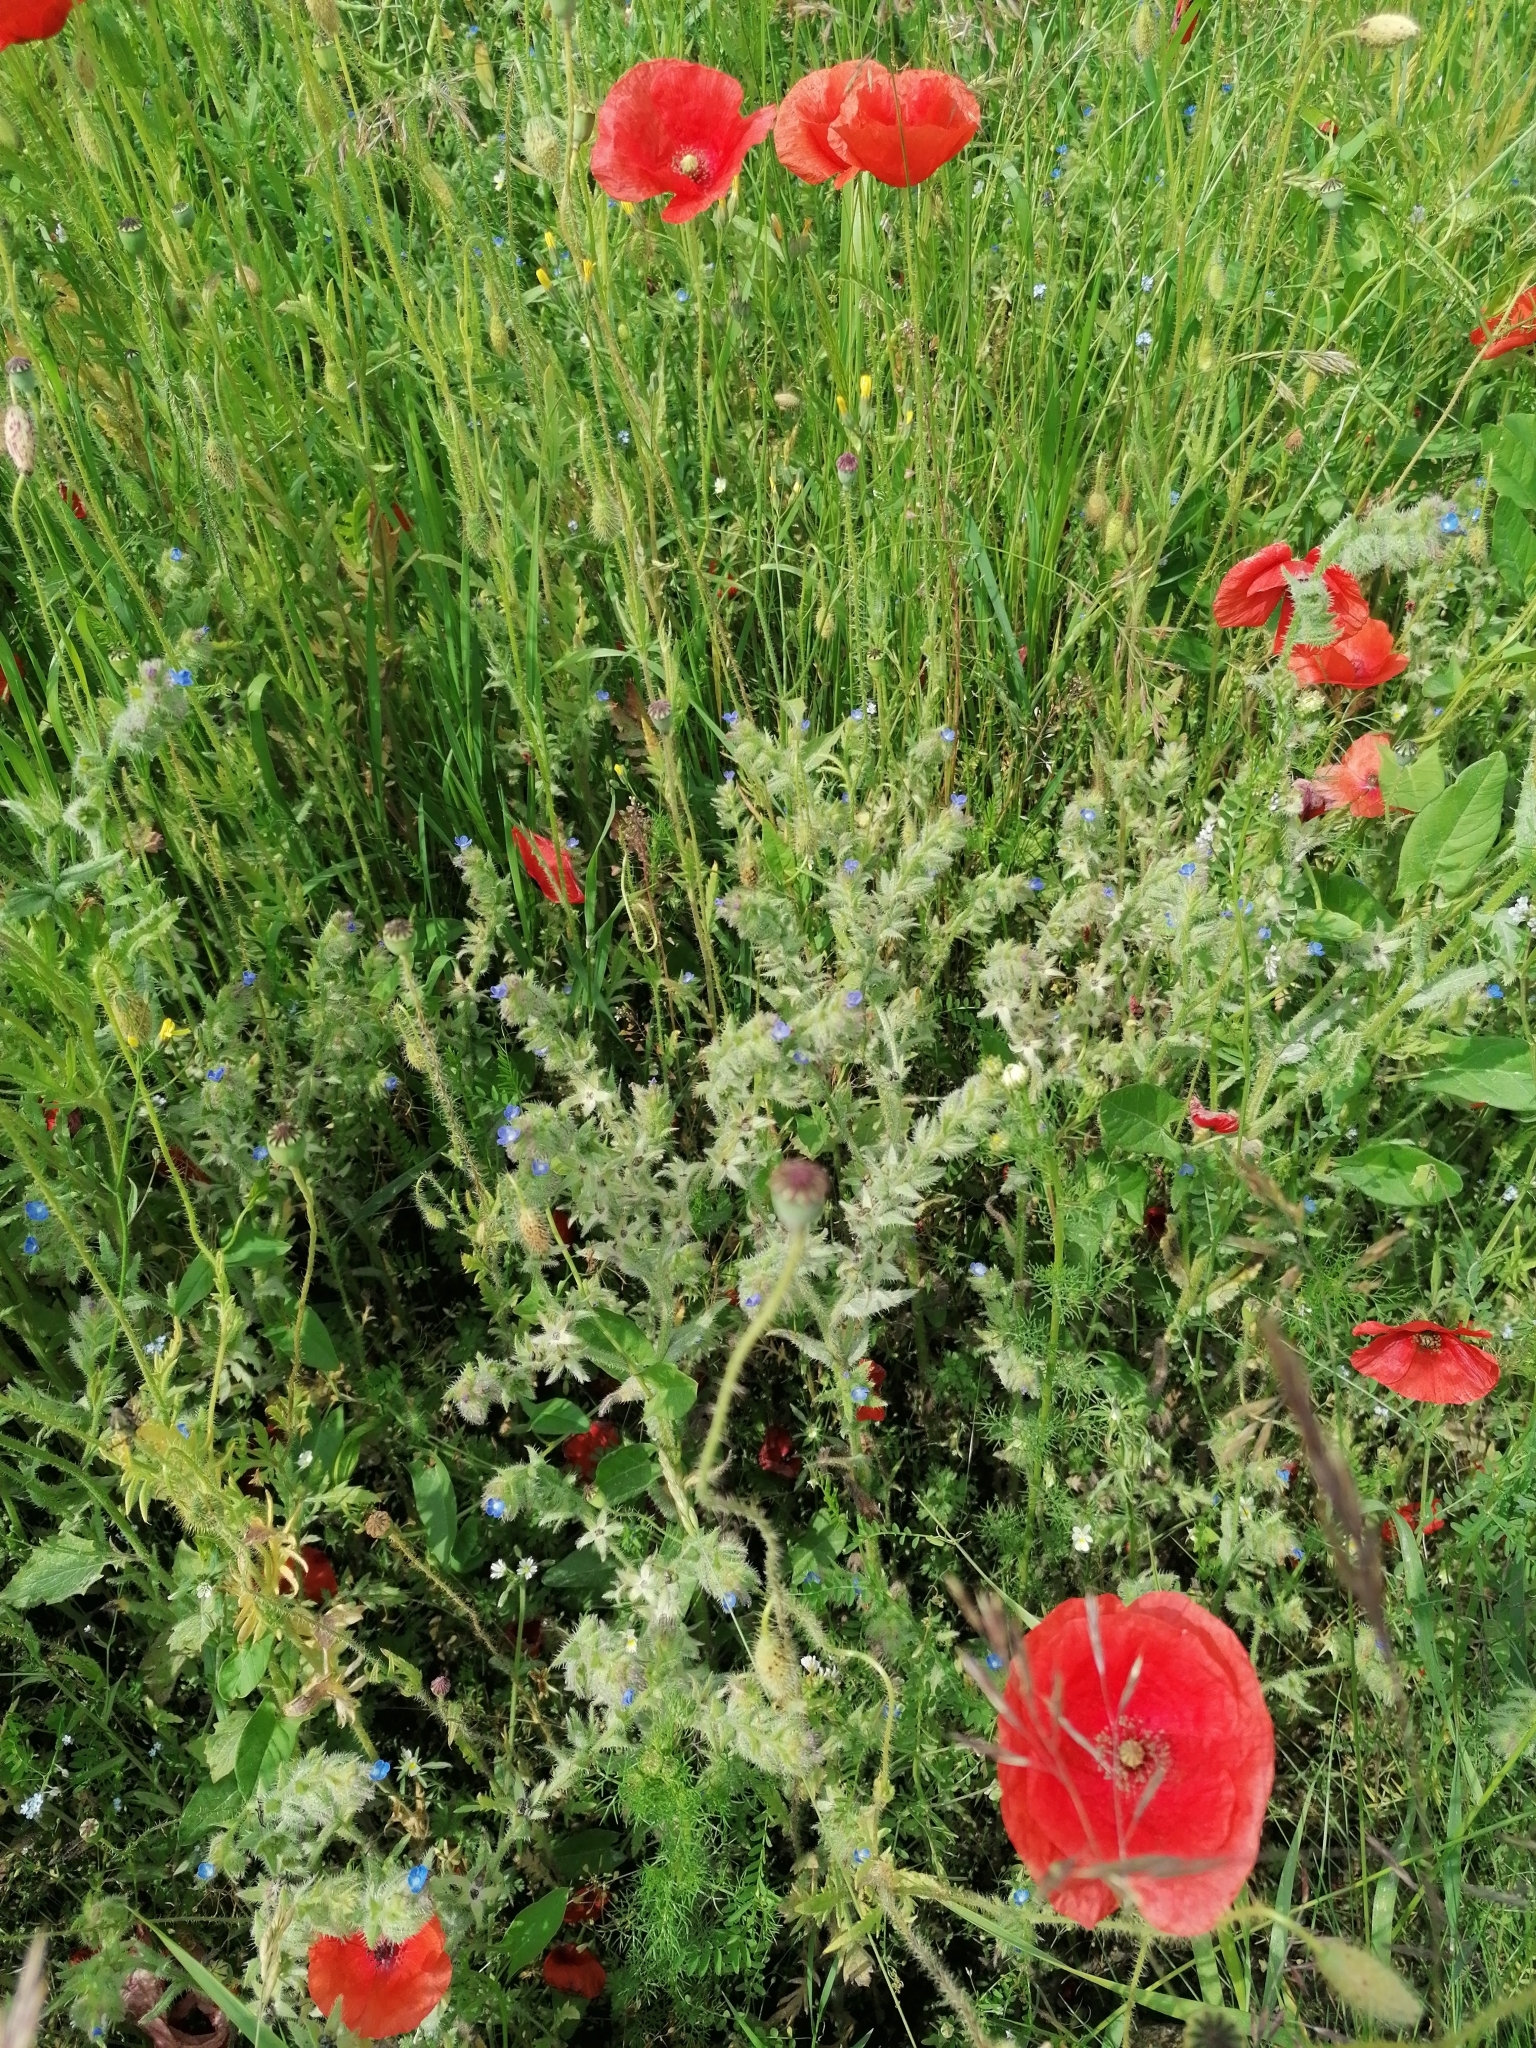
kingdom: Plantae
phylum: Tracheophyta
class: Magnoliopsida
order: Boraginales
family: Boraginaceae
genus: Lycopsis
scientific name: Lycopsis arvensis
